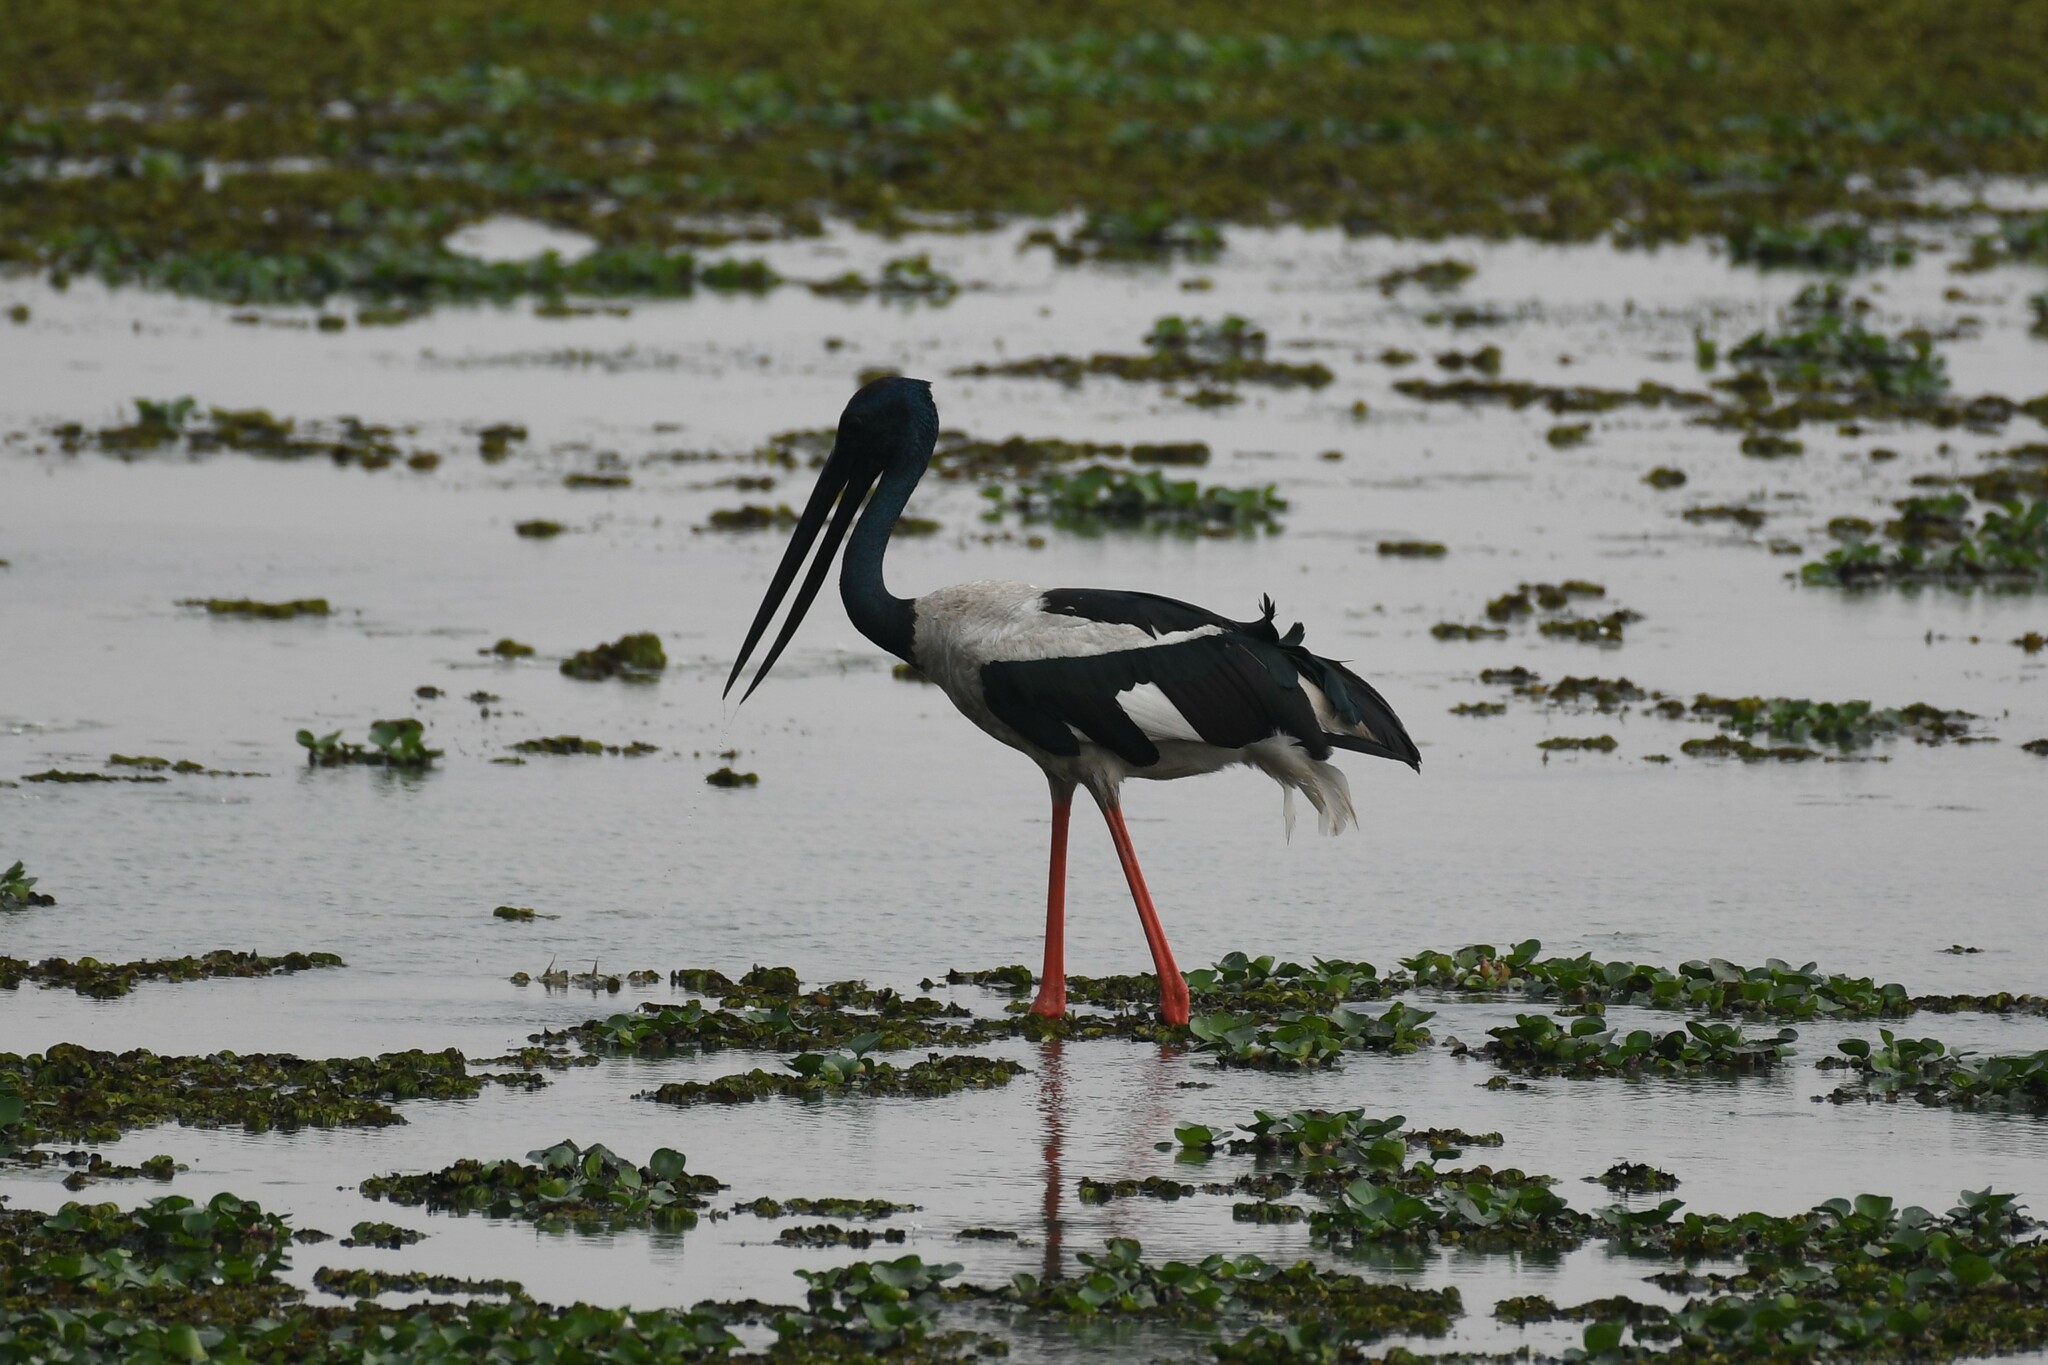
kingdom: Animalia
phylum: Chordata
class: Aves
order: Ciconiiformes
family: Ciconiidae
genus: Ephippiorhynchus
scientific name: Ephippiorhynchus asiaticus
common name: Black-necked stork
